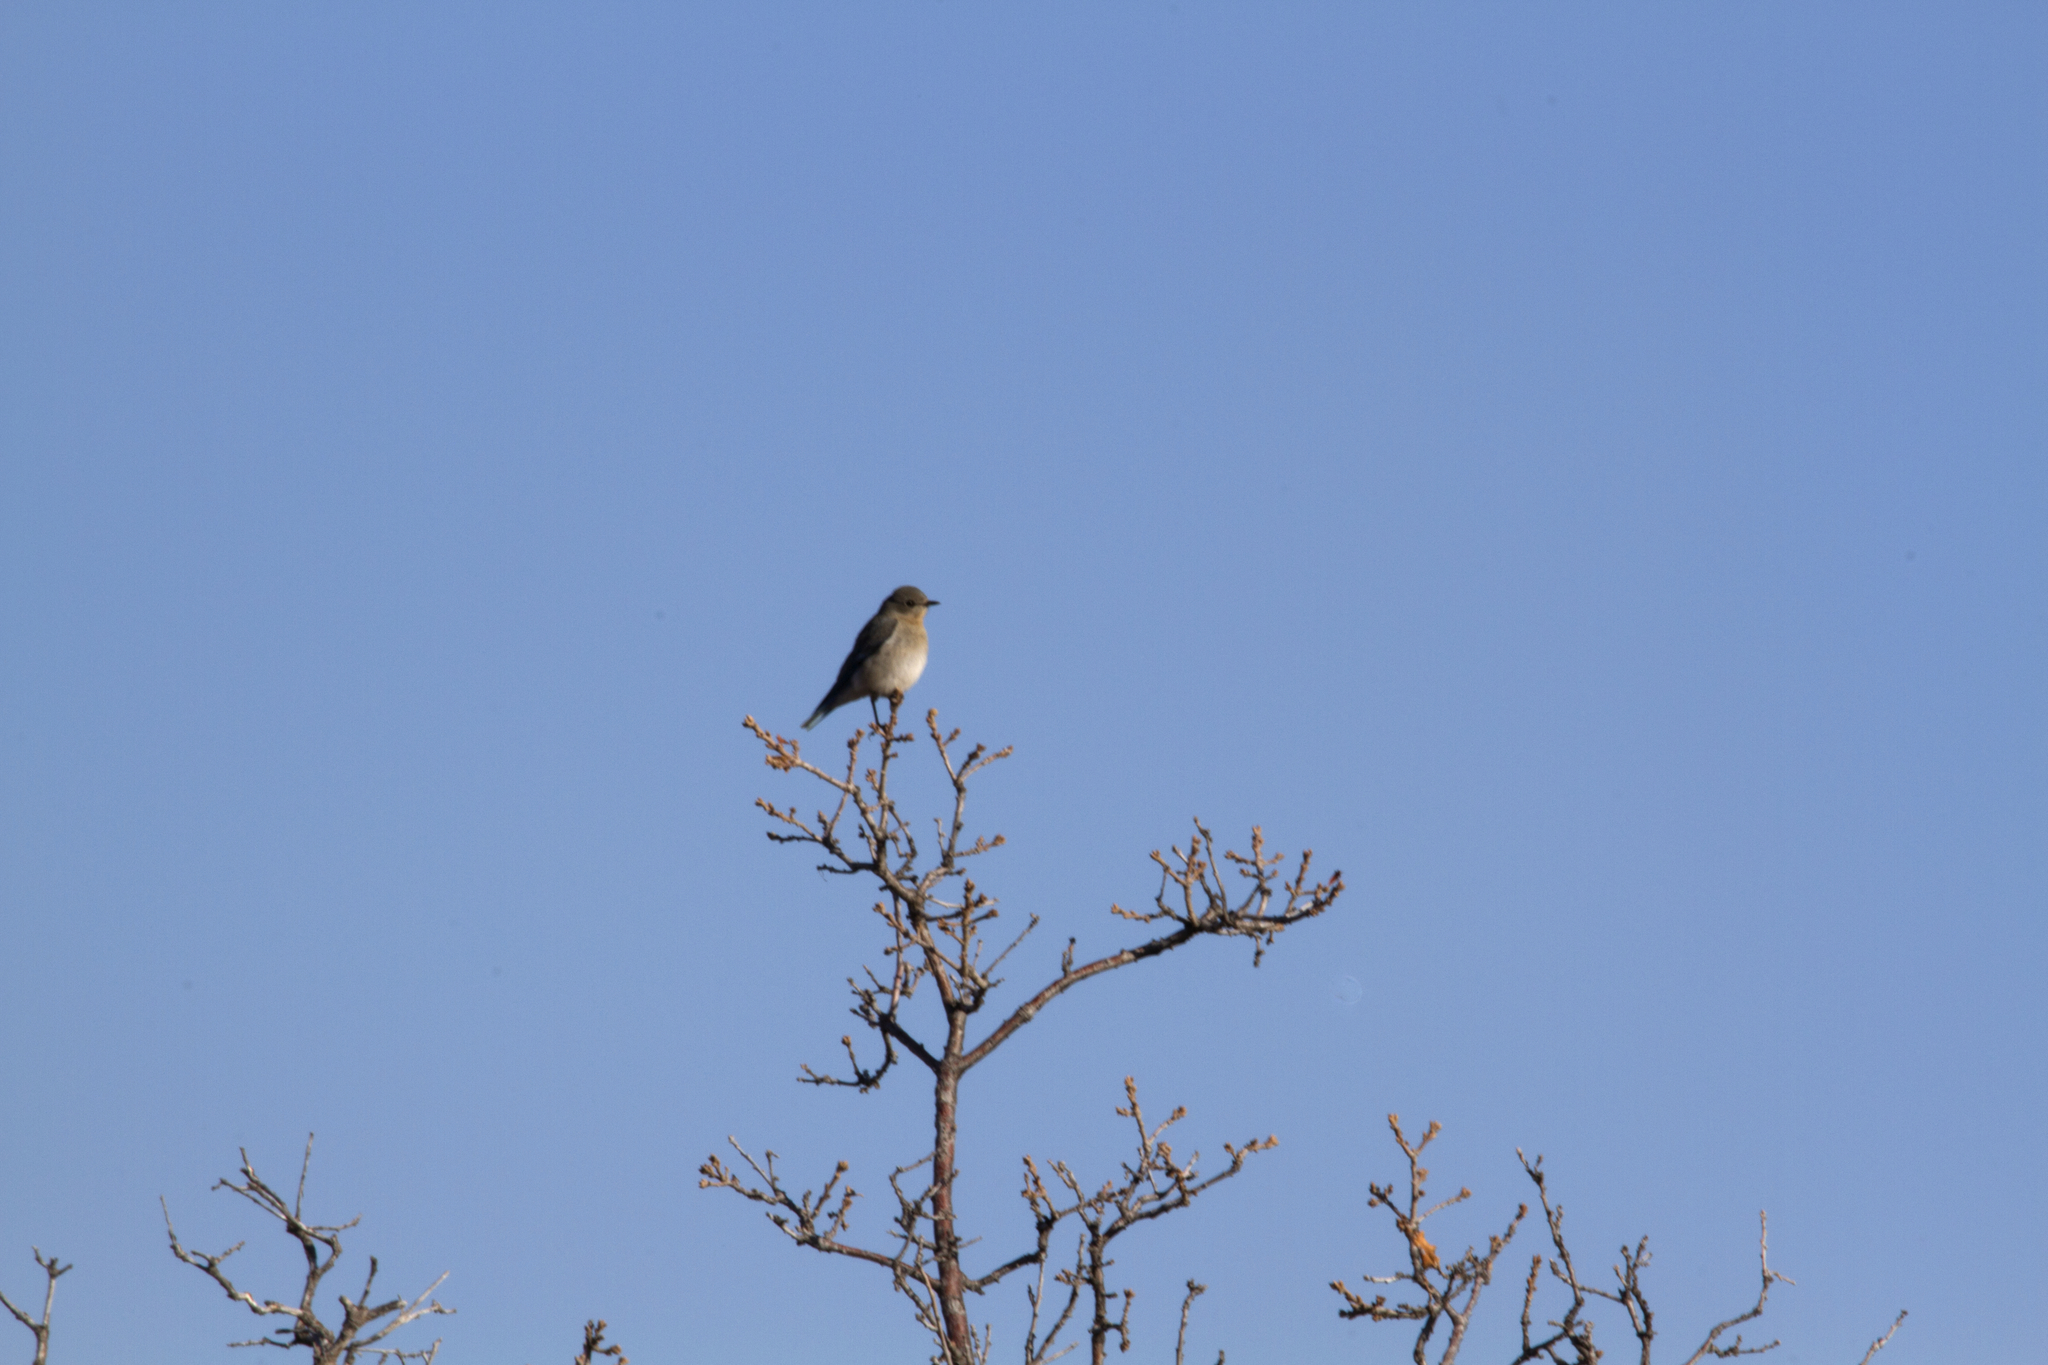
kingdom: Animalia
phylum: Chordata
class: Aves
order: Passeriformes
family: Turdidae
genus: Sialia
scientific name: Sialia currucoides
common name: Mountain bluebird
